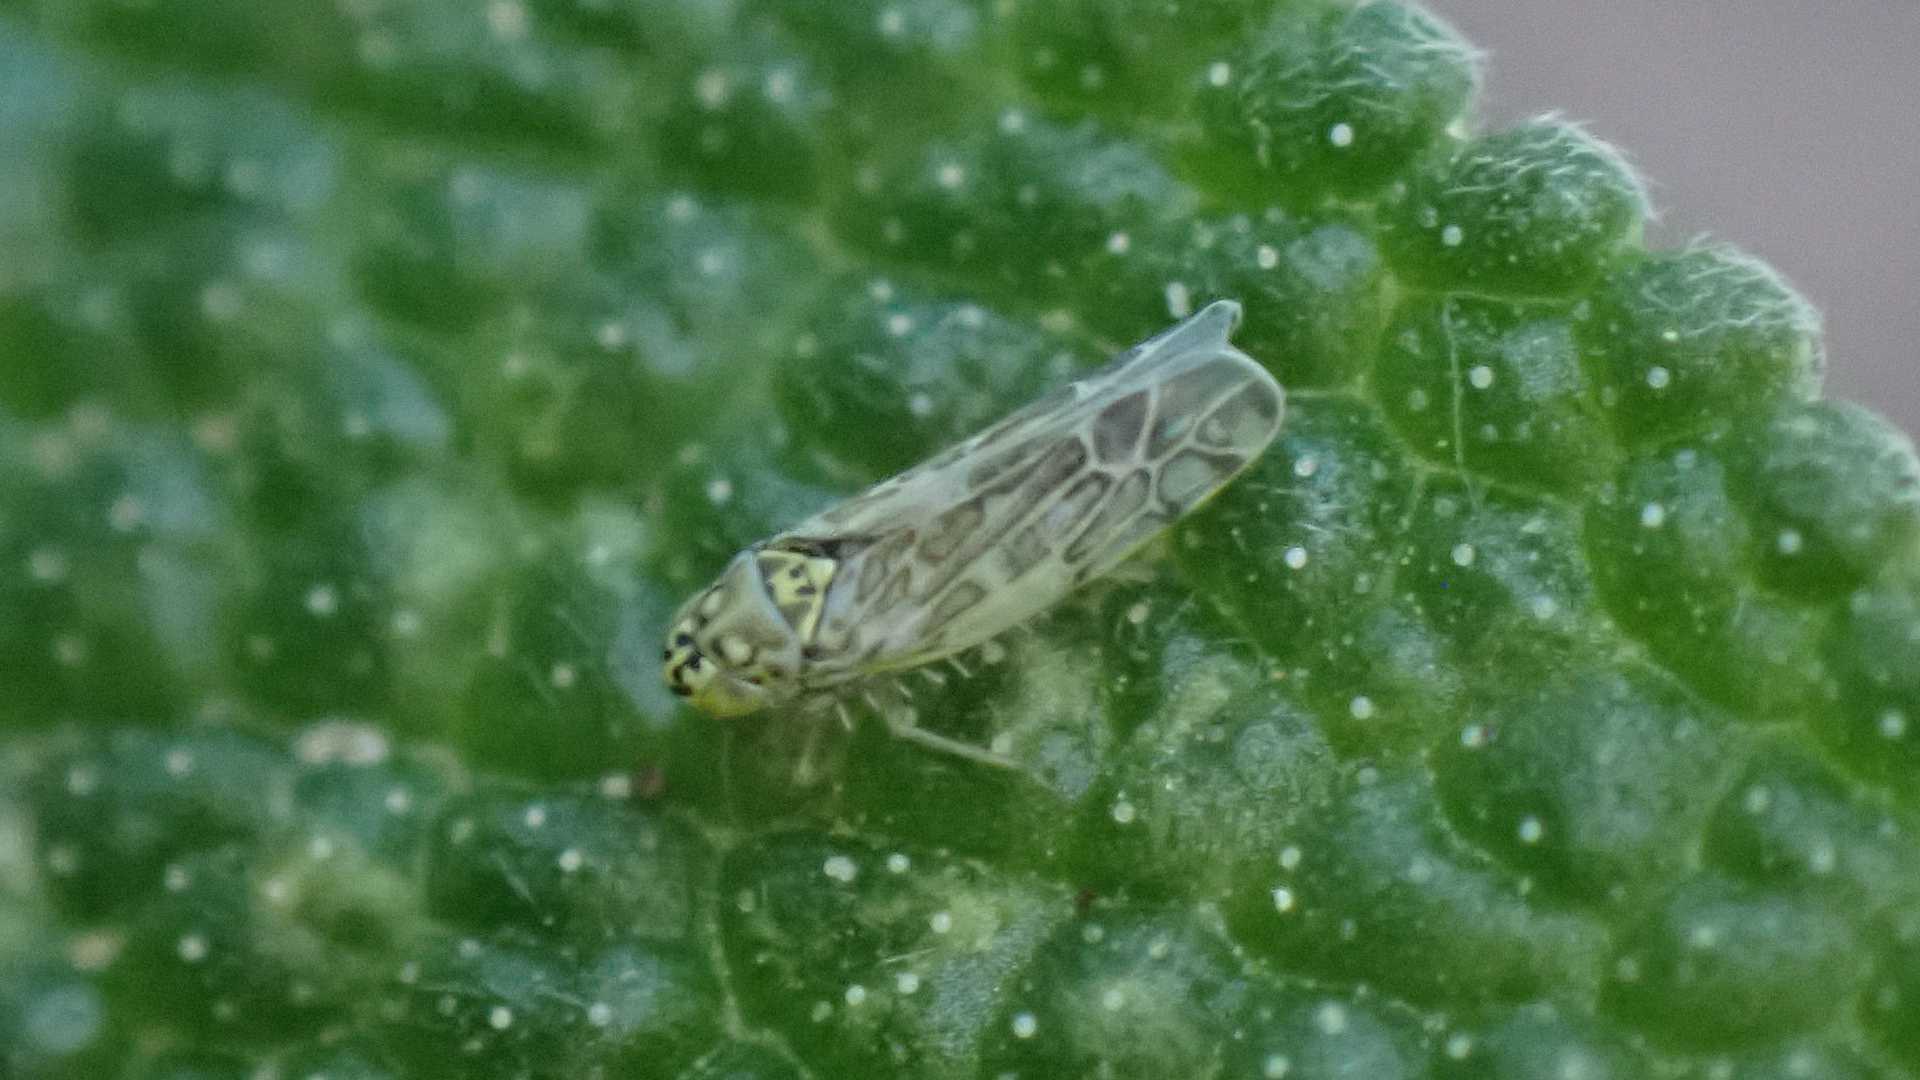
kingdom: Animalia
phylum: Arthropoda
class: Insecta
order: Hemiptera
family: Cicadellidae
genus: Eupteryx
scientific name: Eupteryx decemnotata
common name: Ligurian leafhopper
